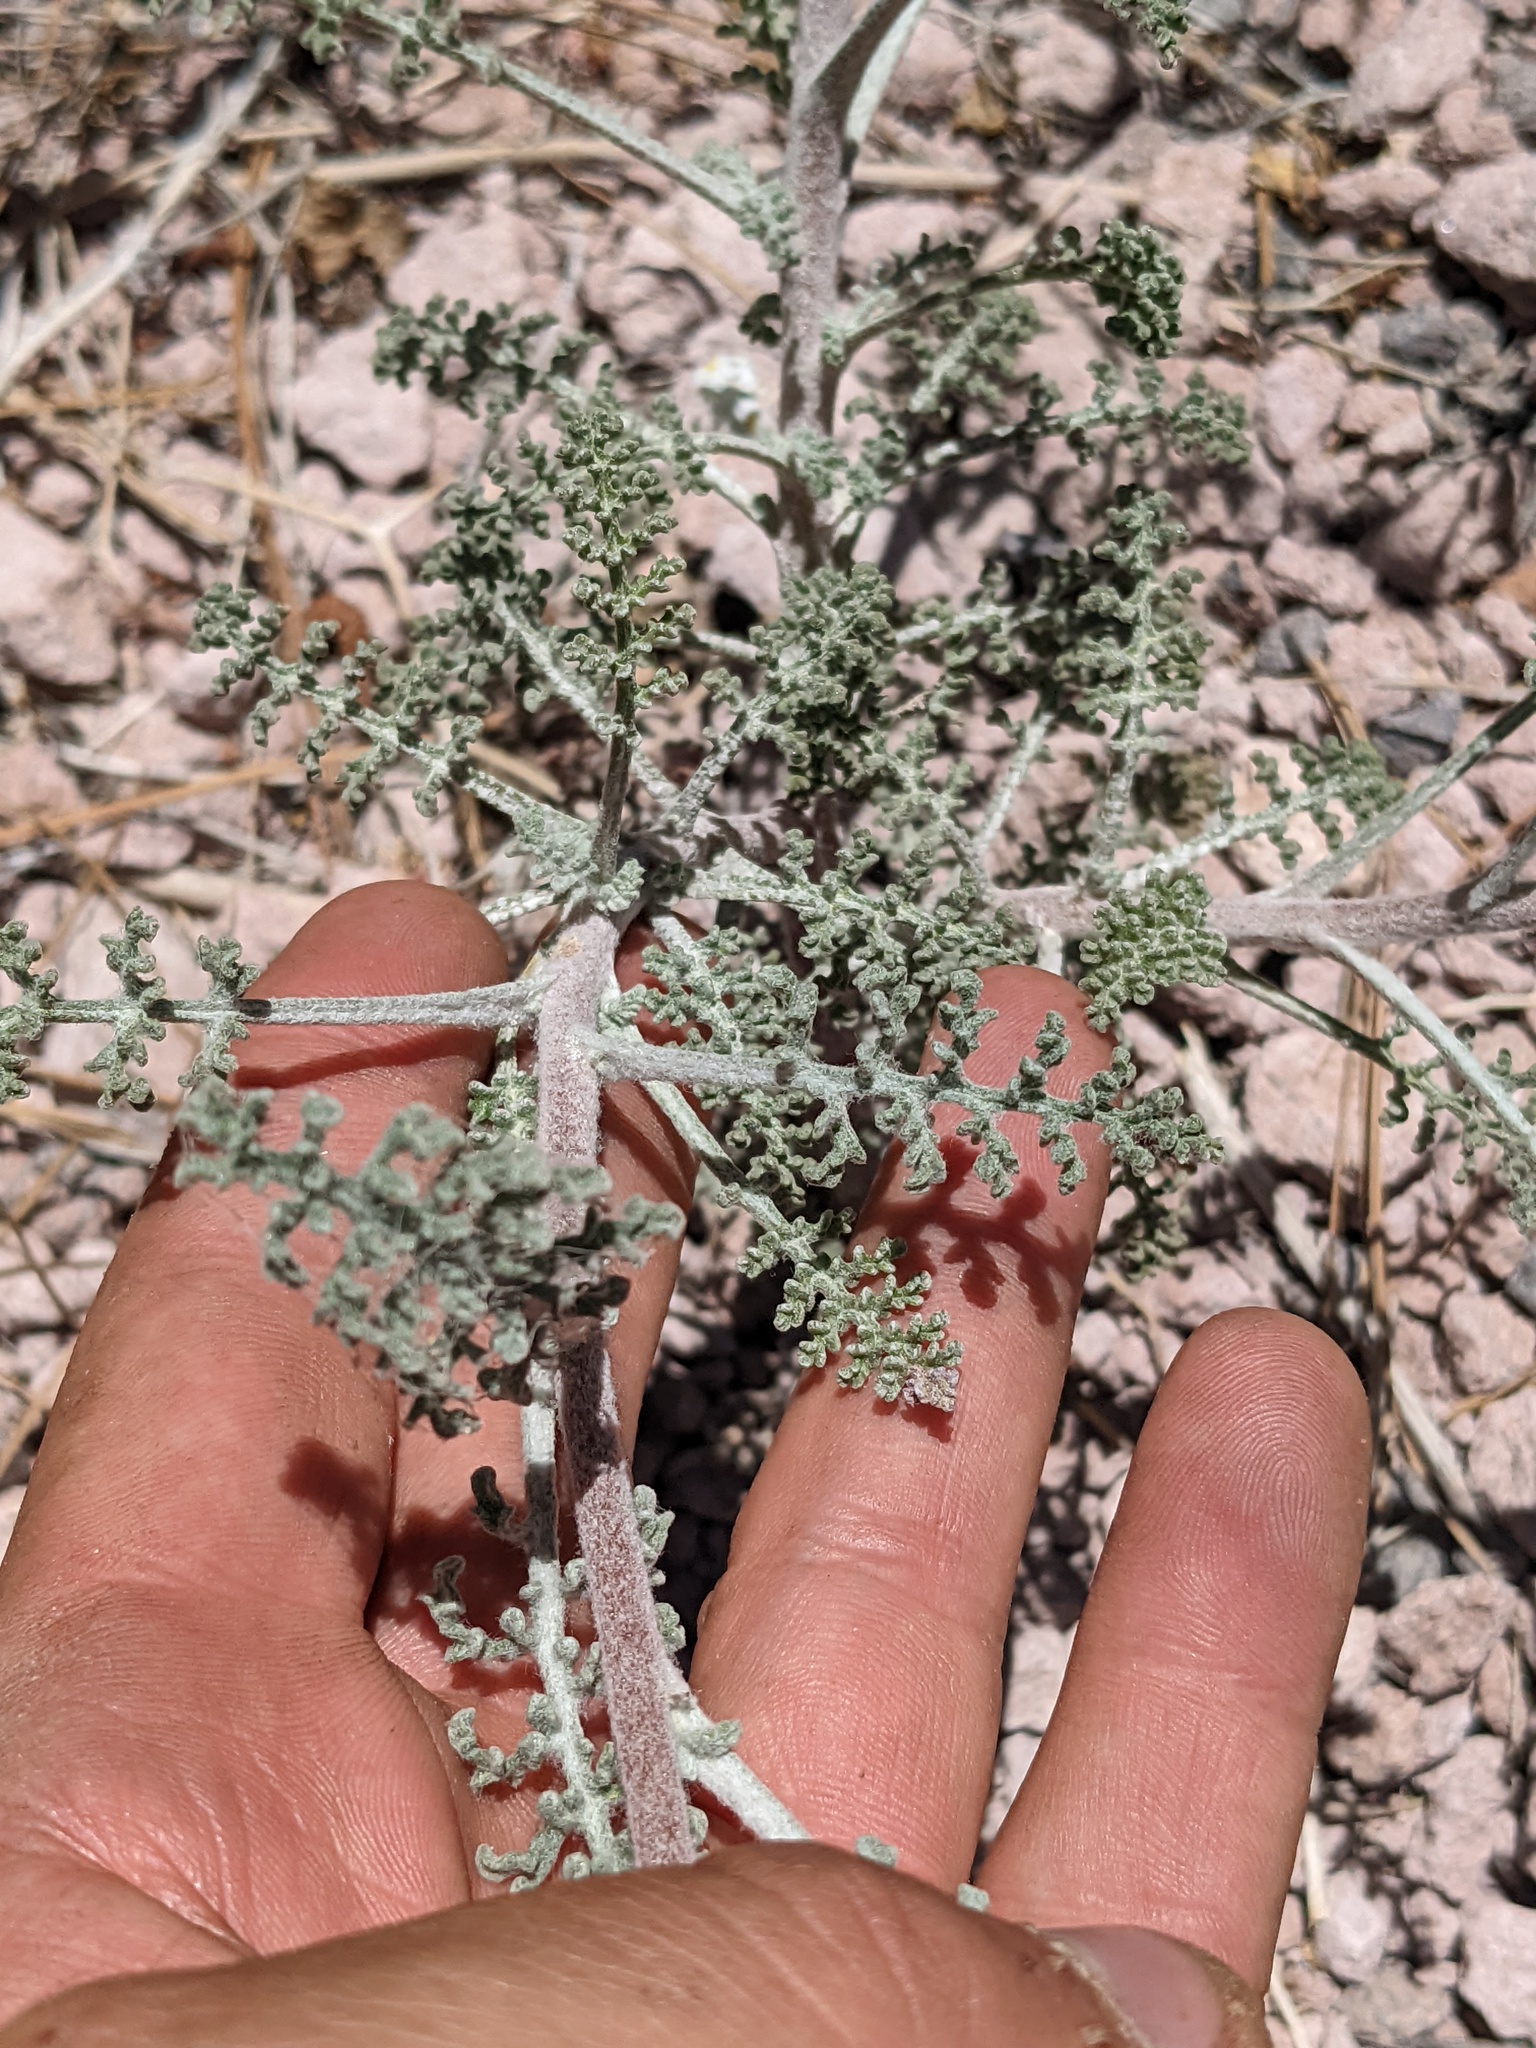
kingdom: Plantae
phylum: Tracheophyta
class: Magnoliopsida
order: Asterales
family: Asteraceae
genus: Chaenactis
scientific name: Chaenactis douglasii
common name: Hoary pincushion
